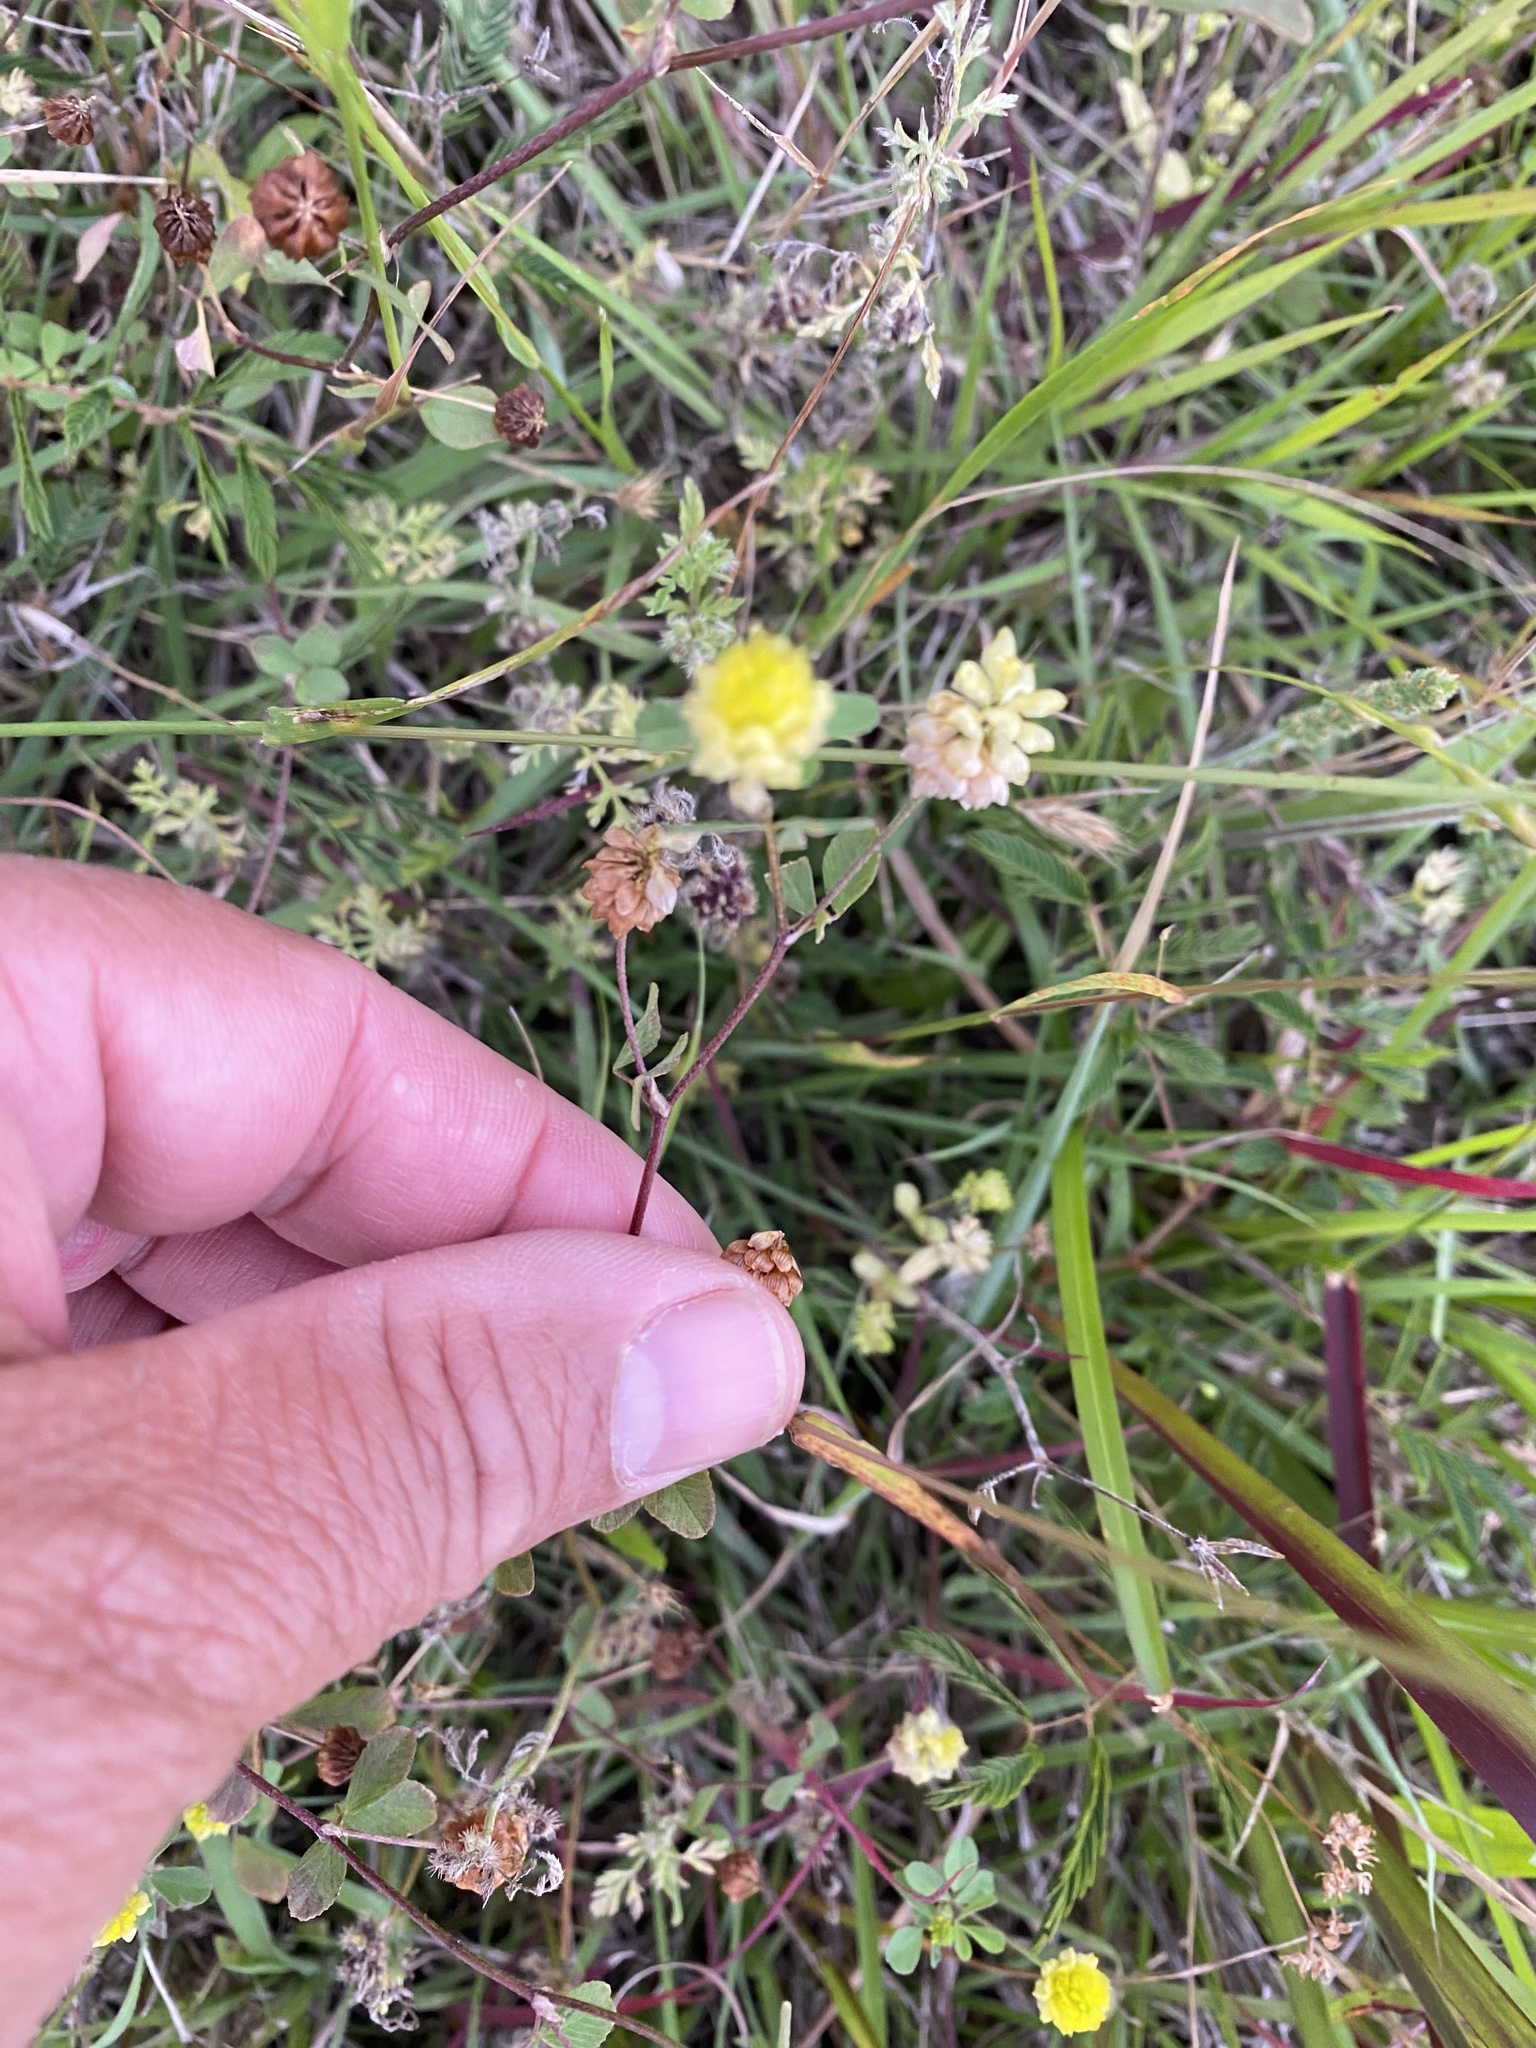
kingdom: Plantae
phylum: Tracheophyta
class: Magnoliopsida
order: Fabales
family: Fabaceae
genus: Trifolium
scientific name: Trifolium campestre
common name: Field clover
